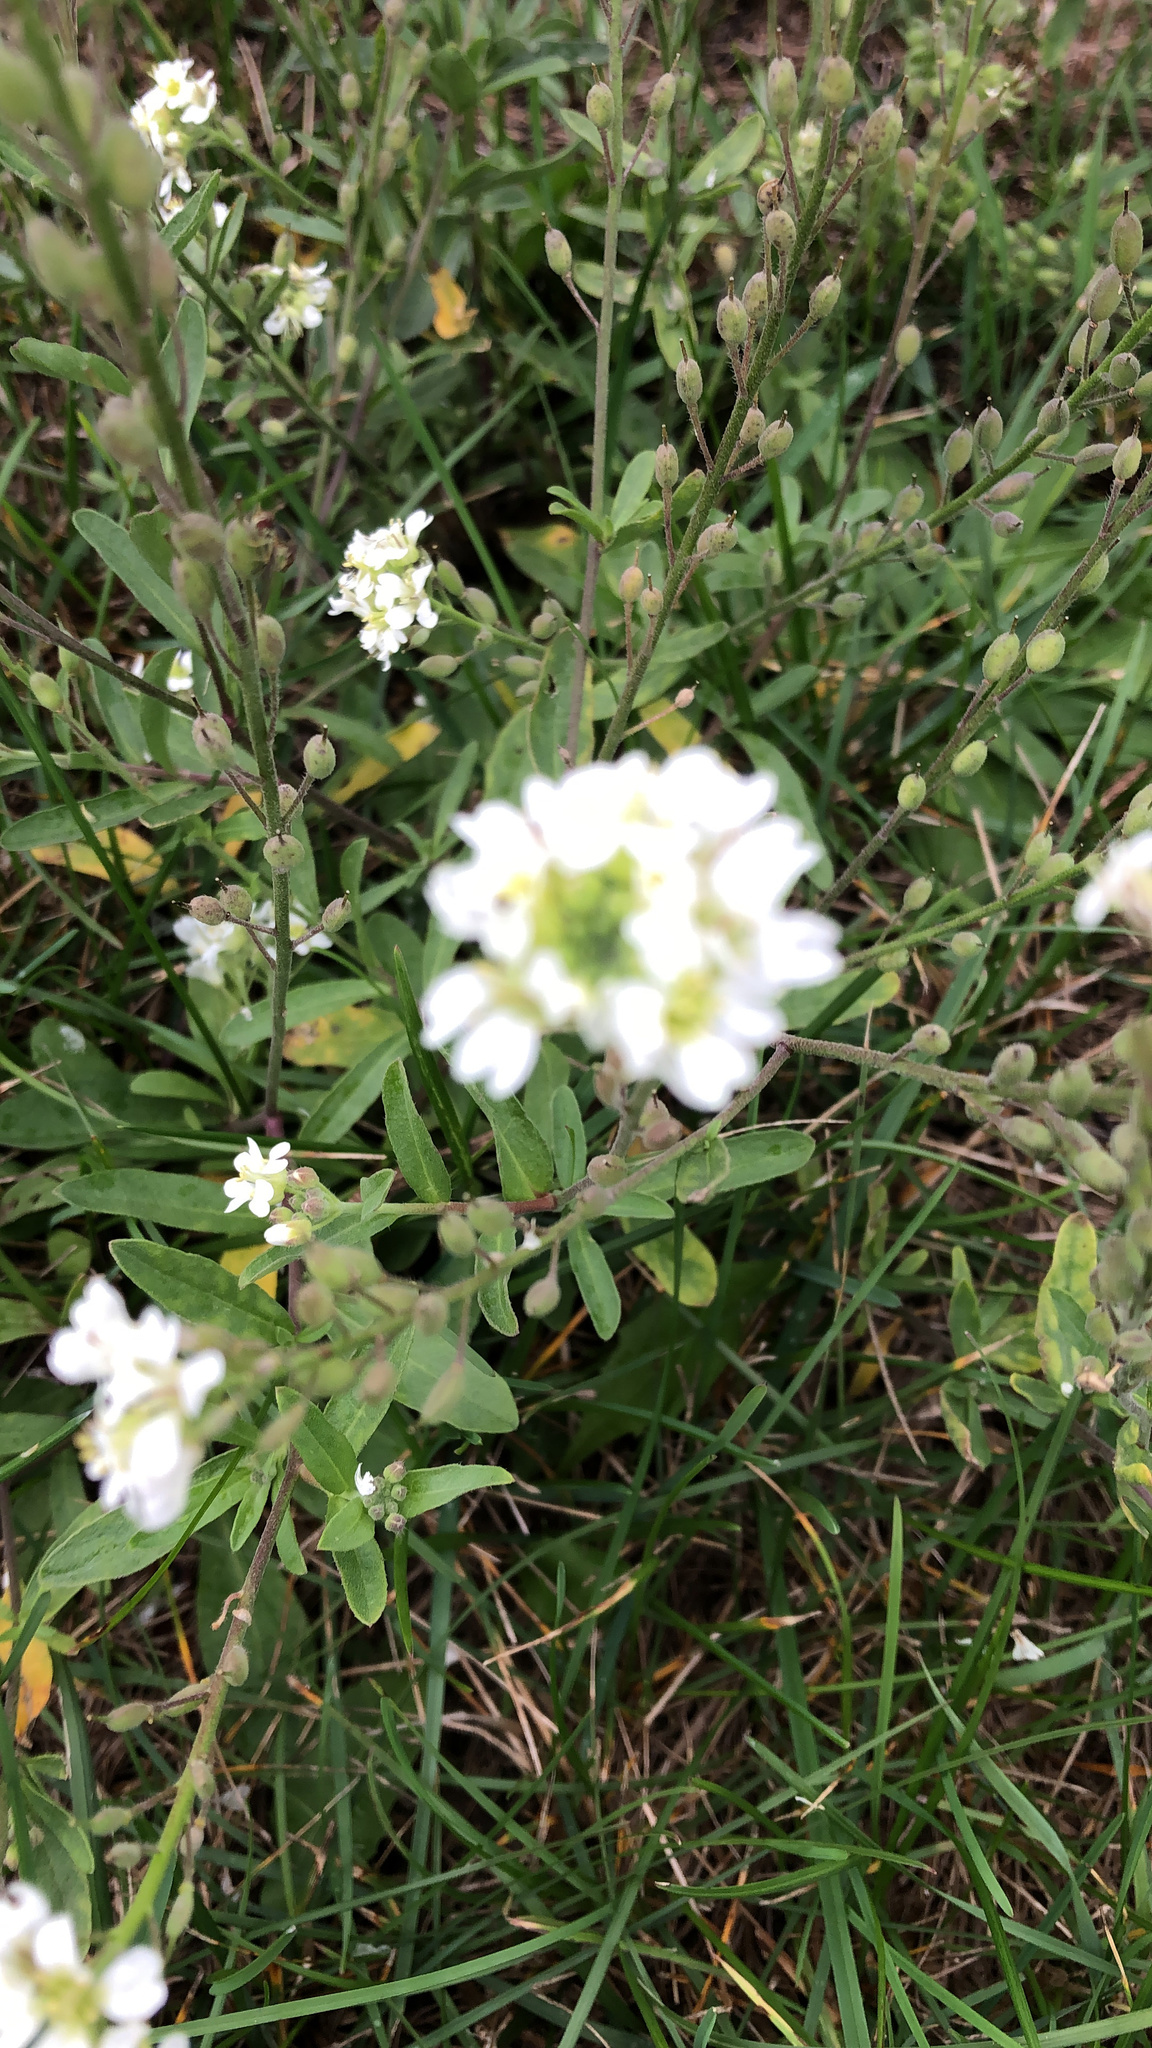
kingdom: Plantae
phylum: Tracheophyta
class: Magnoliopsida
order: Brassicales
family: Brassicaceae
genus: Berteroa
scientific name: Berteroa incana
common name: Hoary alison
